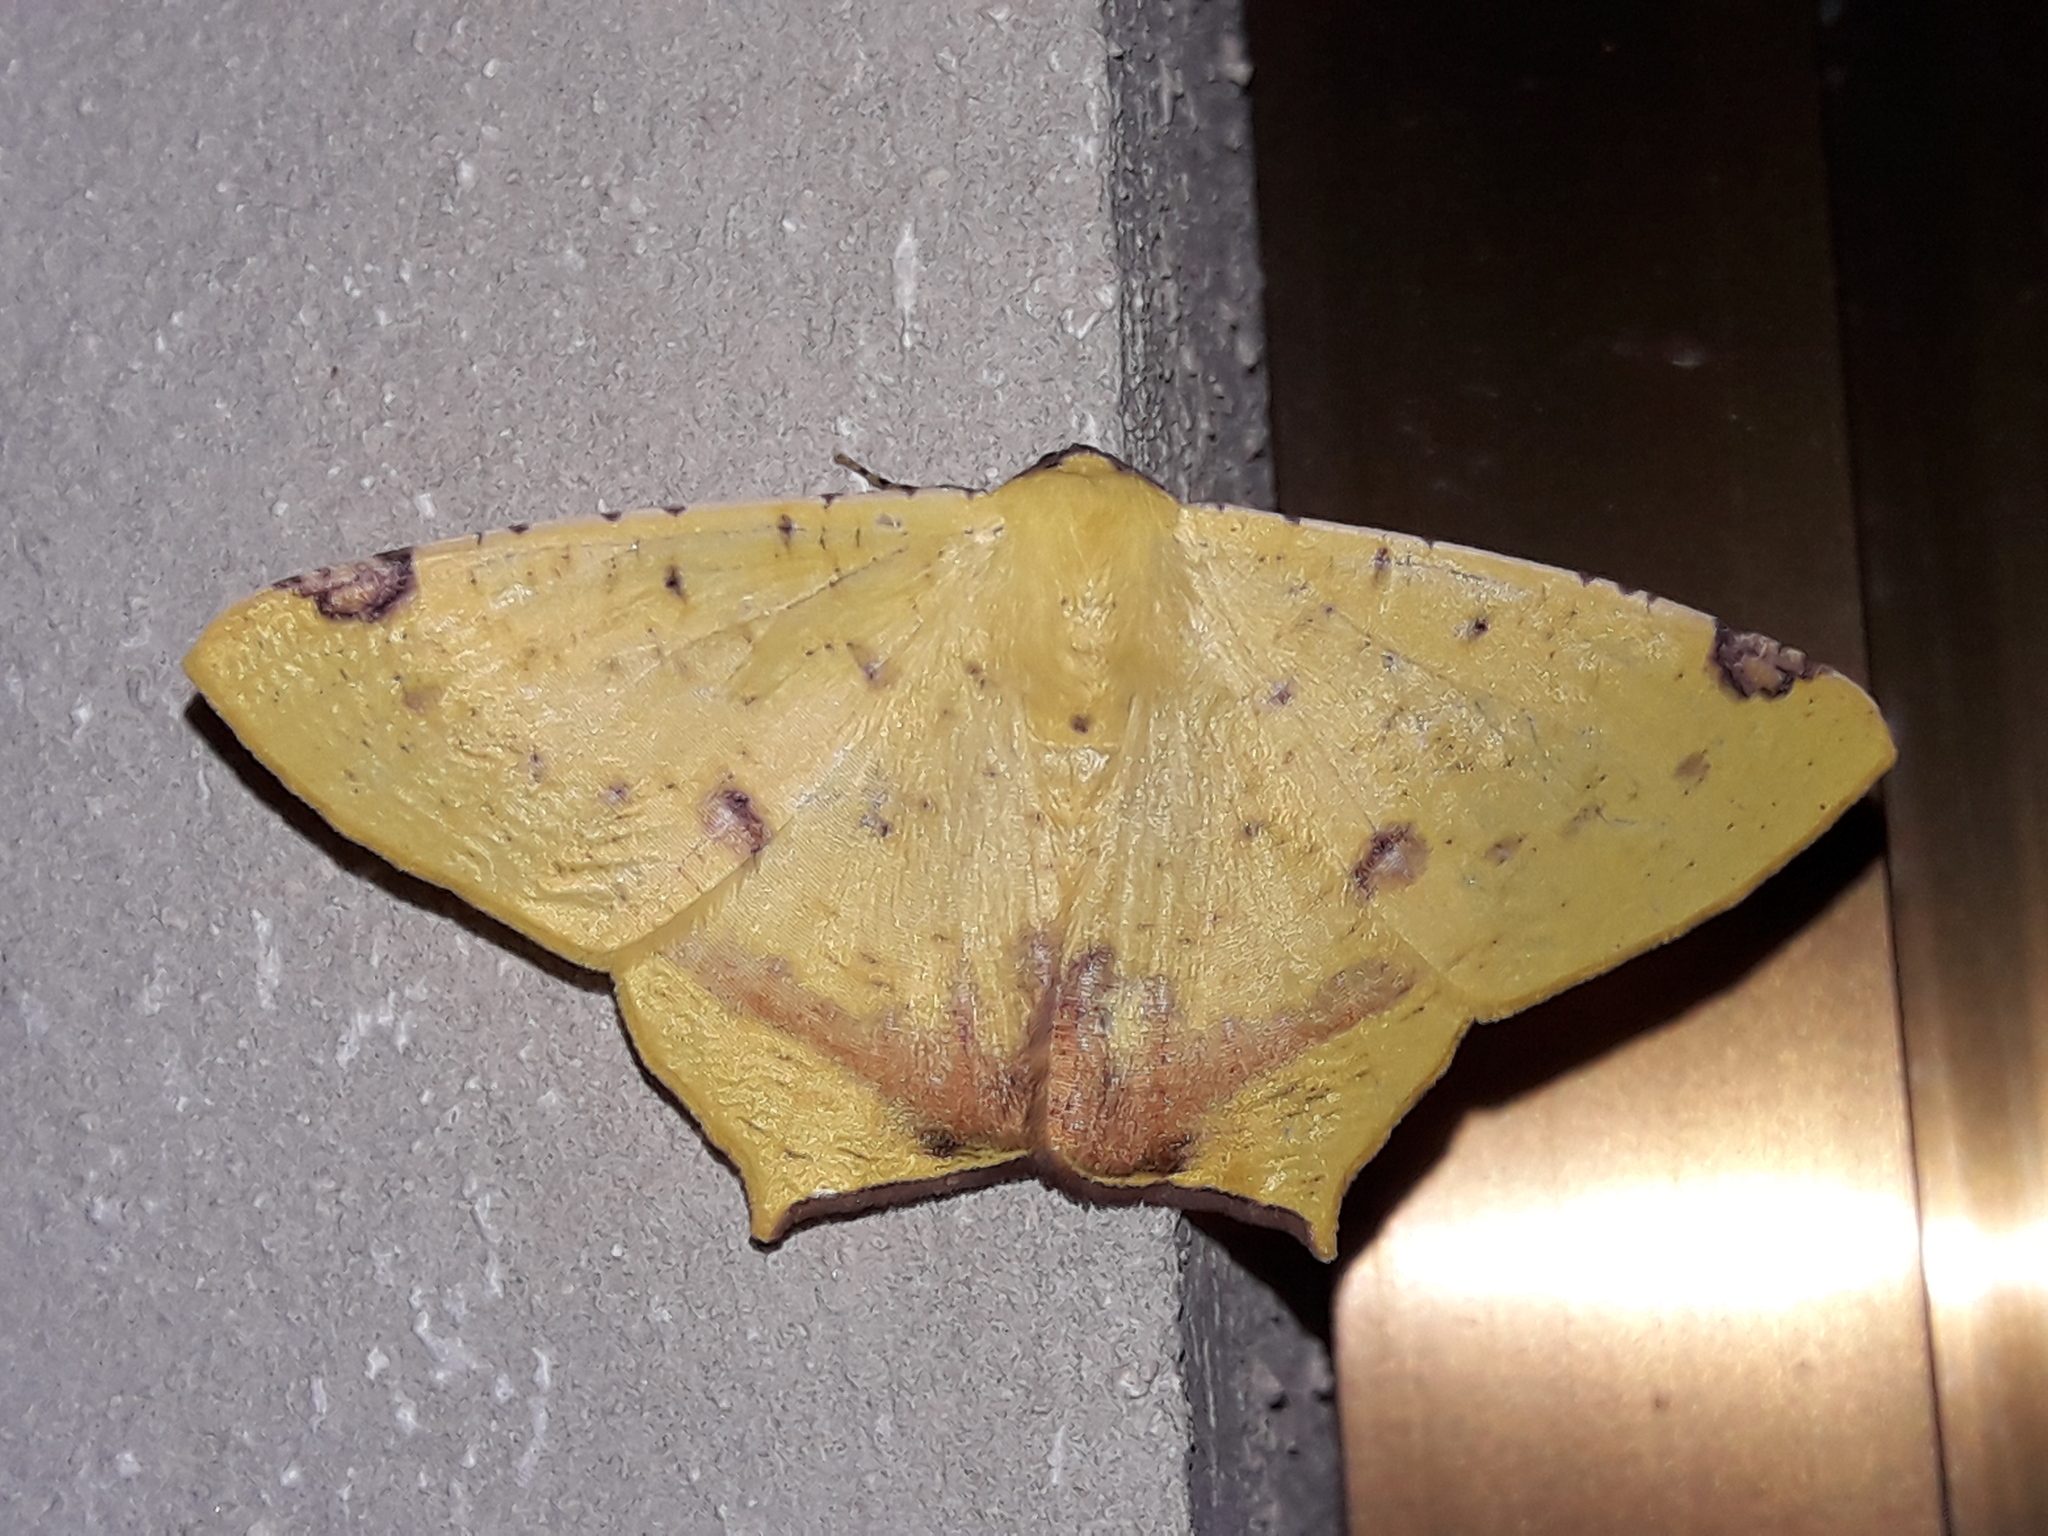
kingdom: Animalia
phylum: Arthropoda
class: Insecta
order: Lepidoptera
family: Geometridae
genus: Nepheloleuca
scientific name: Nepheloleuca politia
